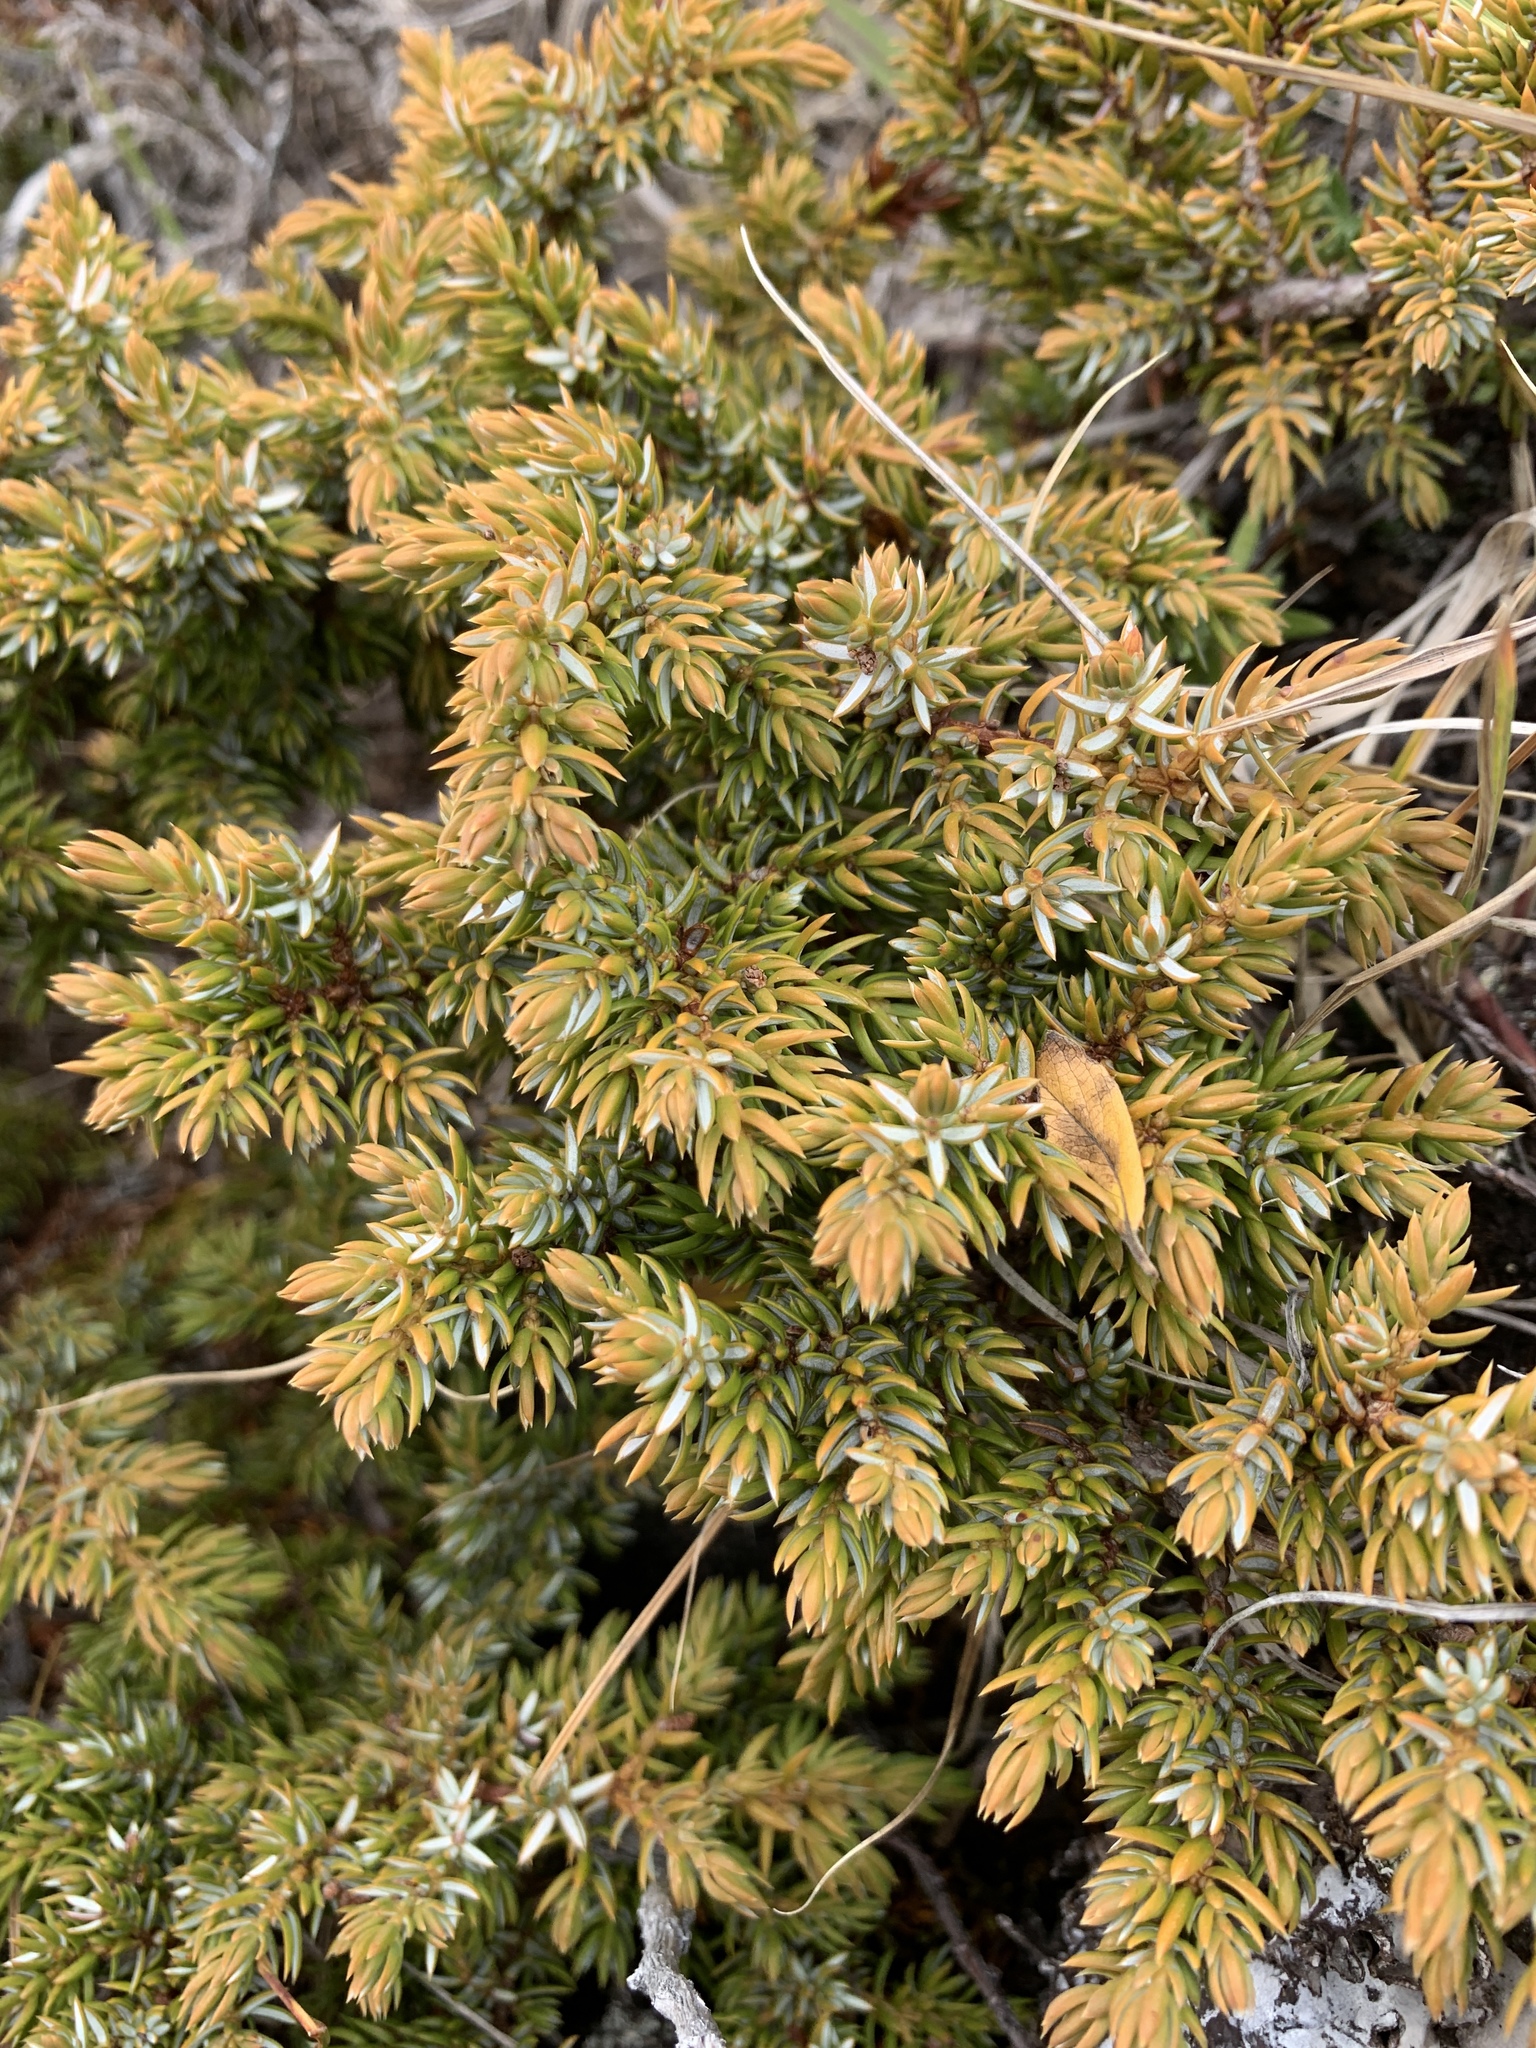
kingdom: Plantae
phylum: Tracheophyta
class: Pinopsida
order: Pinales
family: Cupressaceae
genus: Juniperus
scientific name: Juniperus communis
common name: Common juniper
